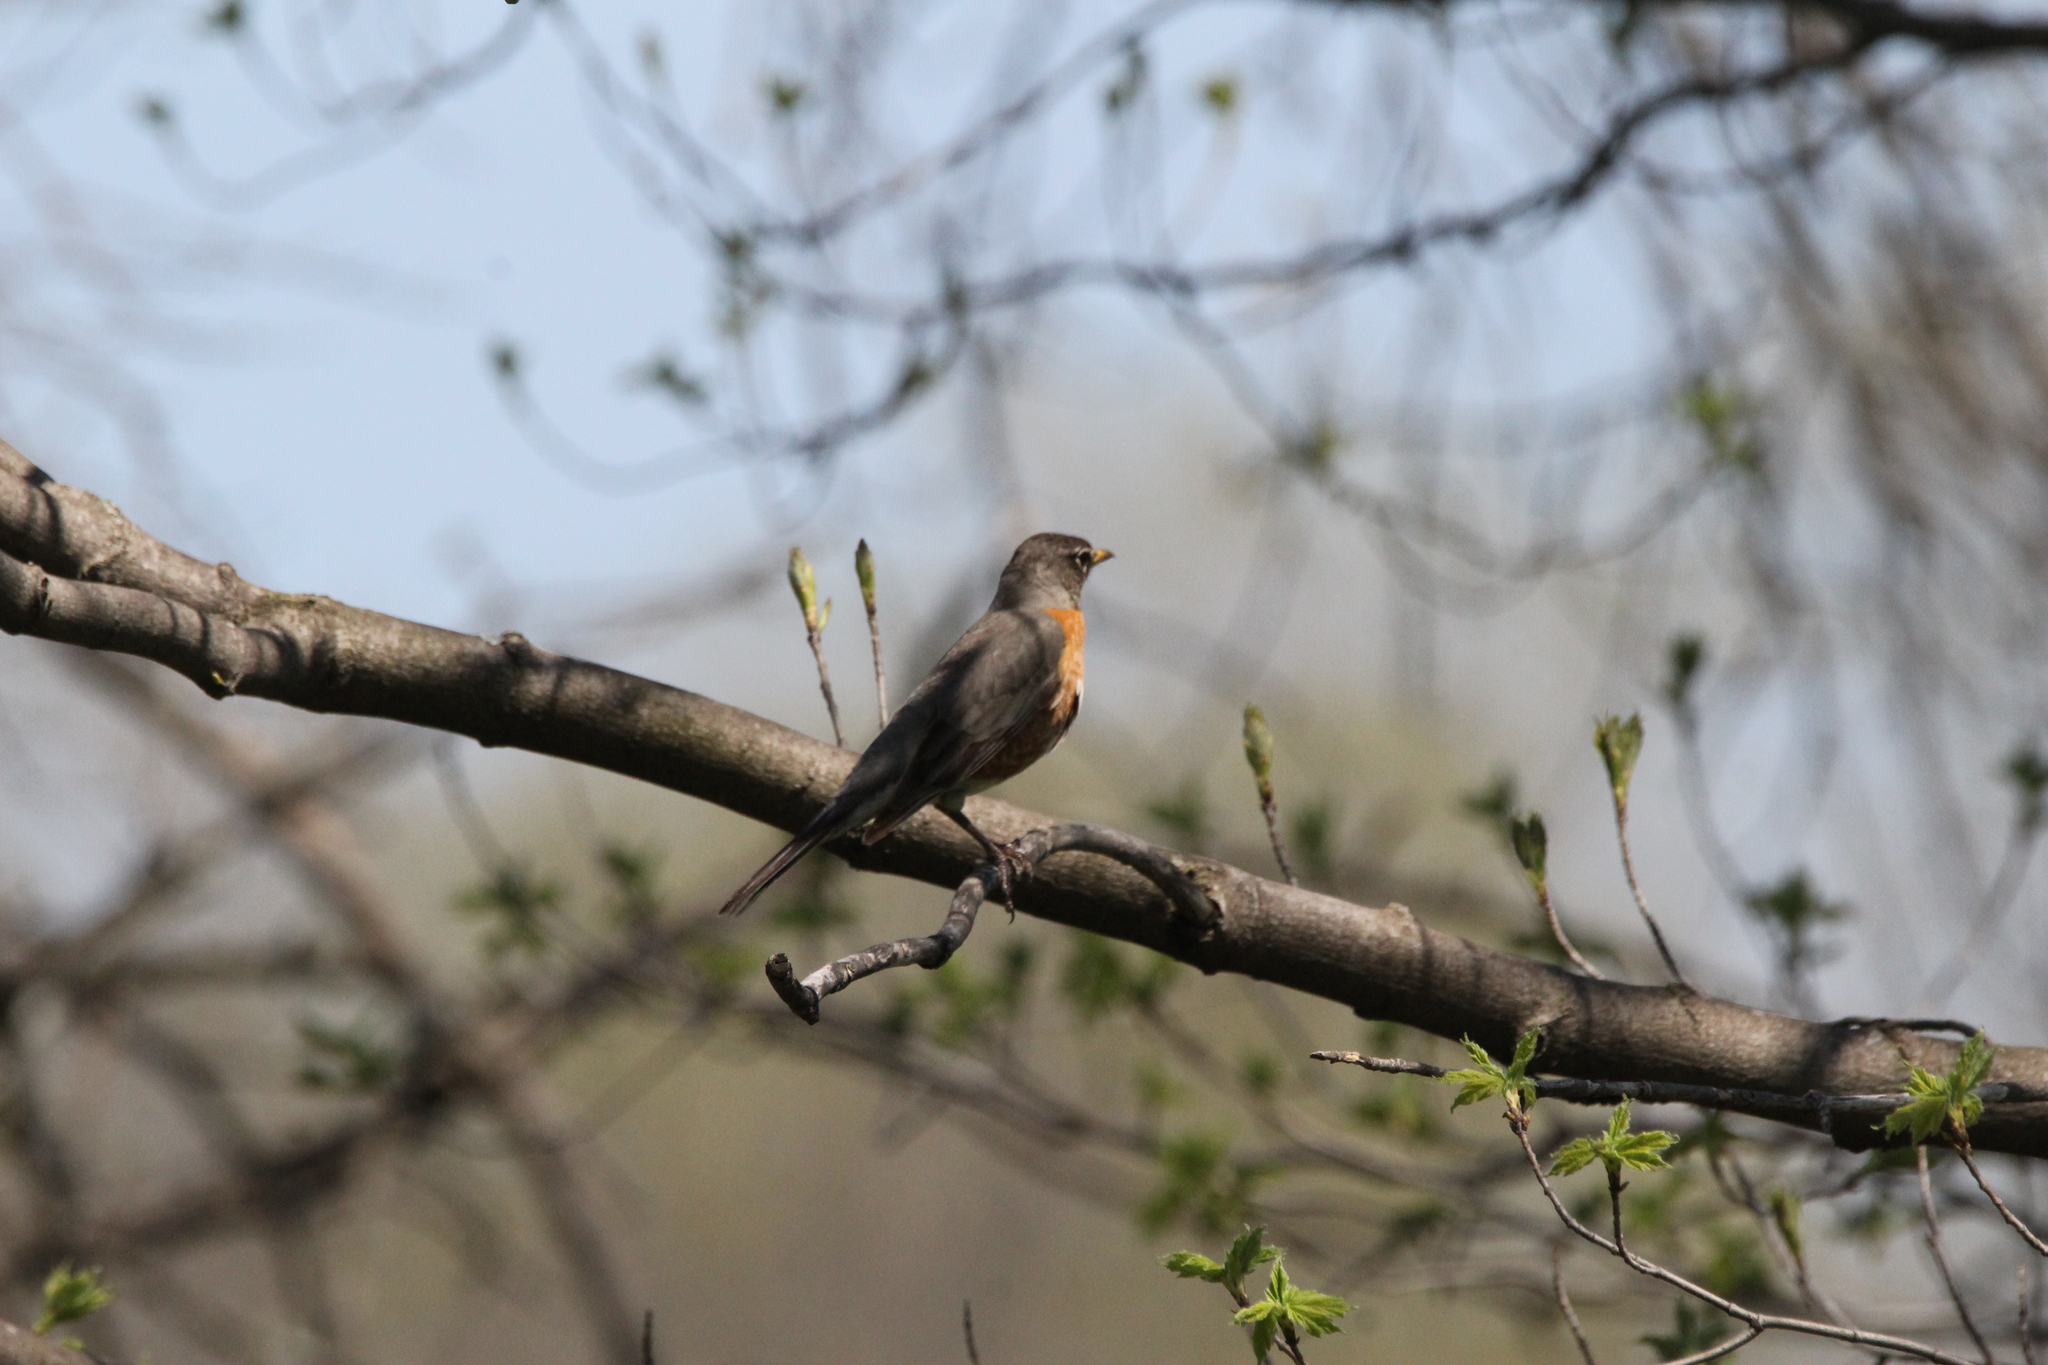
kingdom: Animalia
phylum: Chordata
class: Aves
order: Passeriformes
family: Turdidae
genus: Turdus
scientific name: Turdus migratorius
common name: American robin
